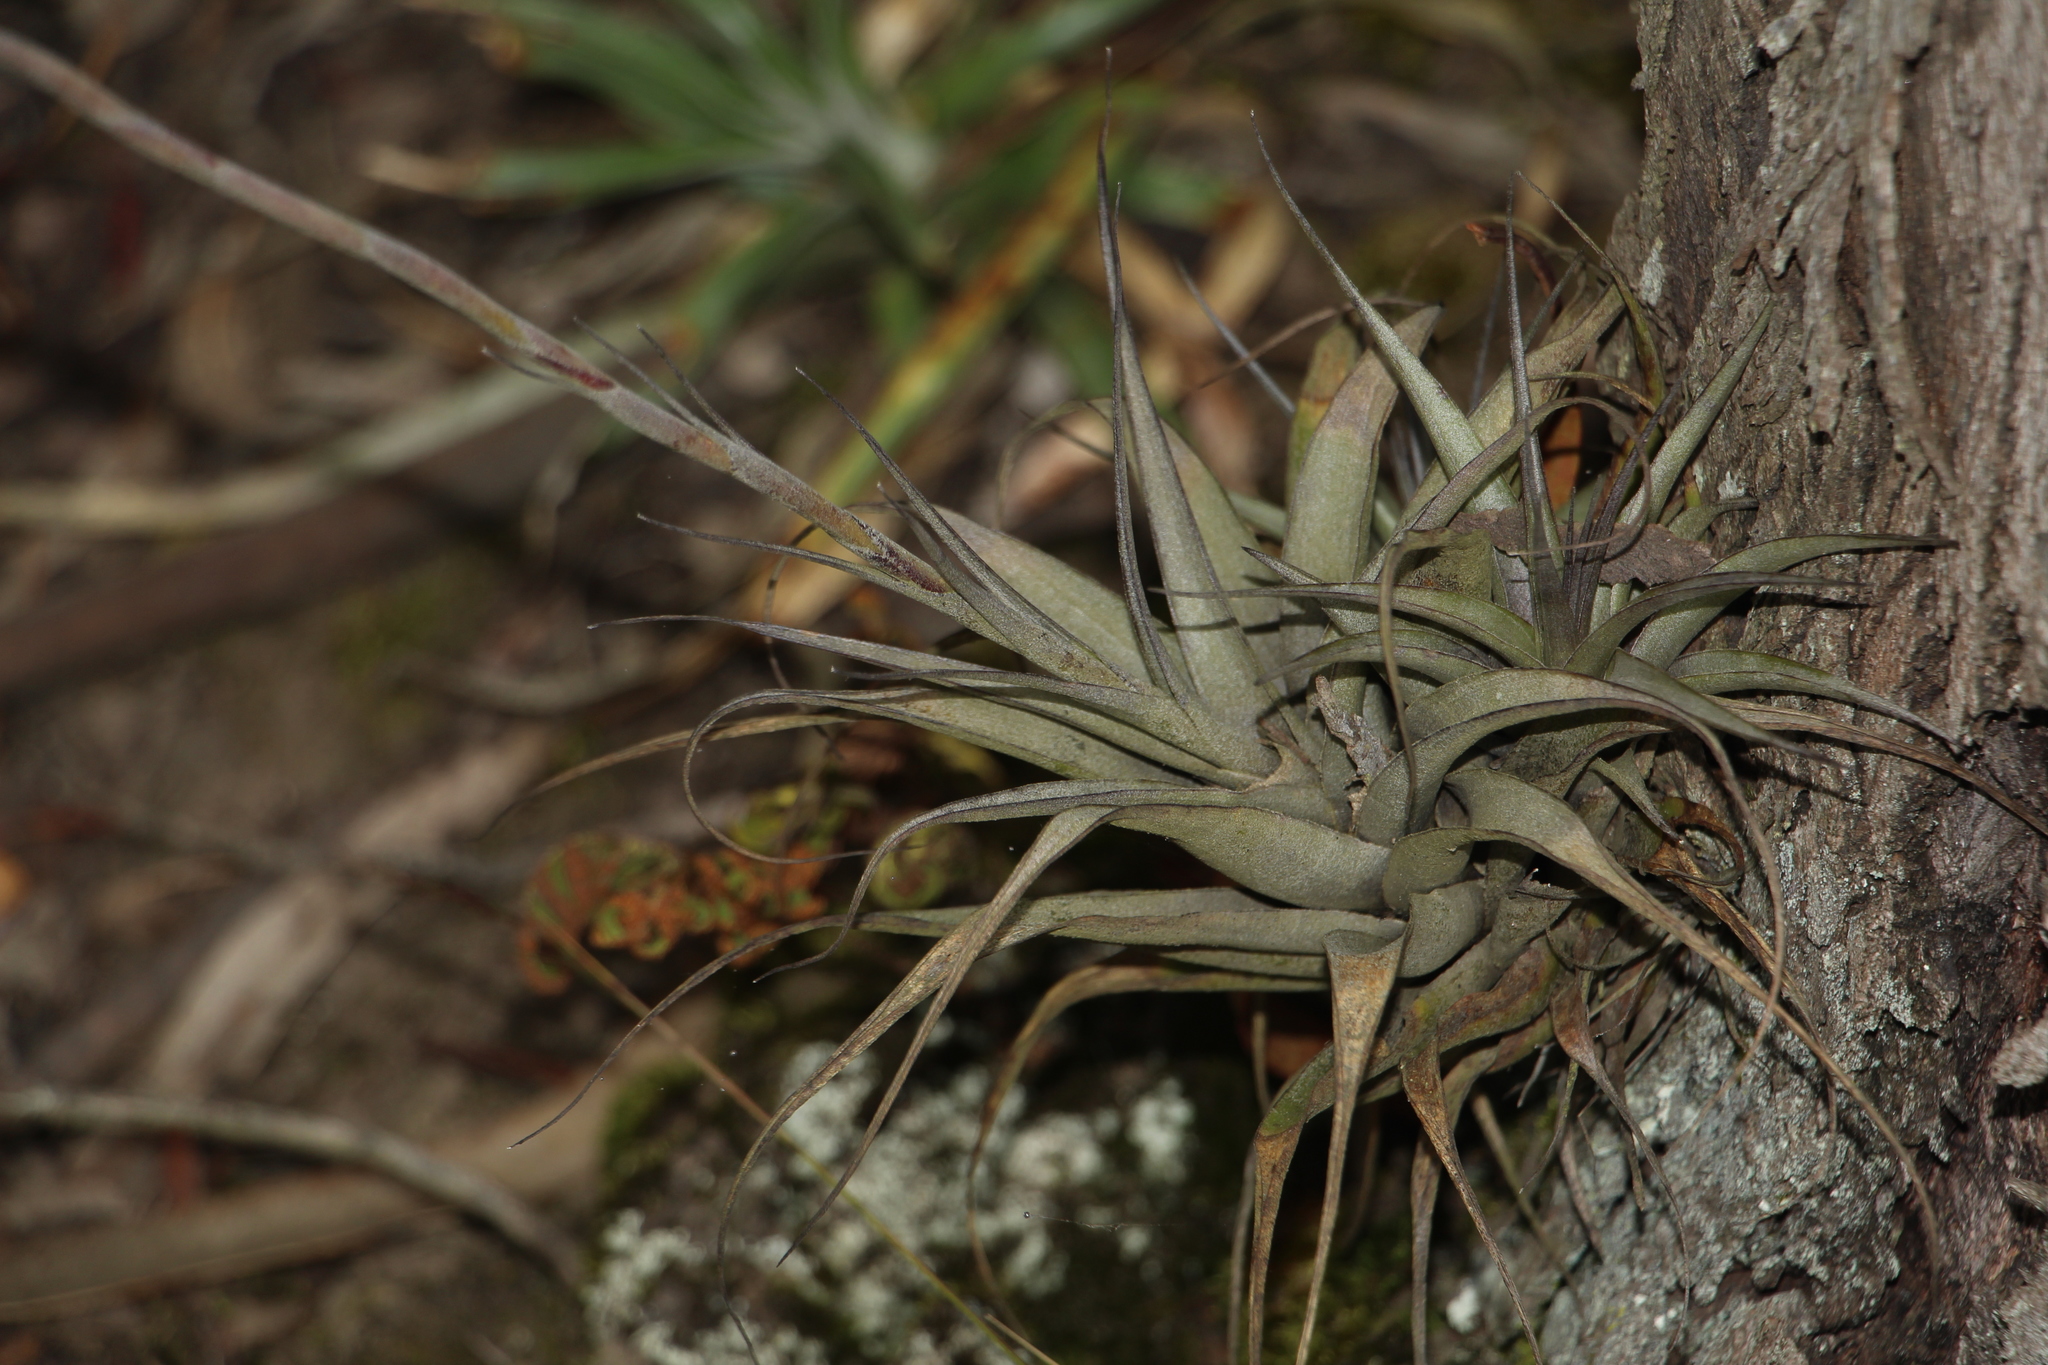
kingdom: Plantae
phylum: Tracheophyta
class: Liliopsida
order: Poales
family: Bromeliaceae
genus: Tillandsia
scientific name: Tillandsia incarnata
